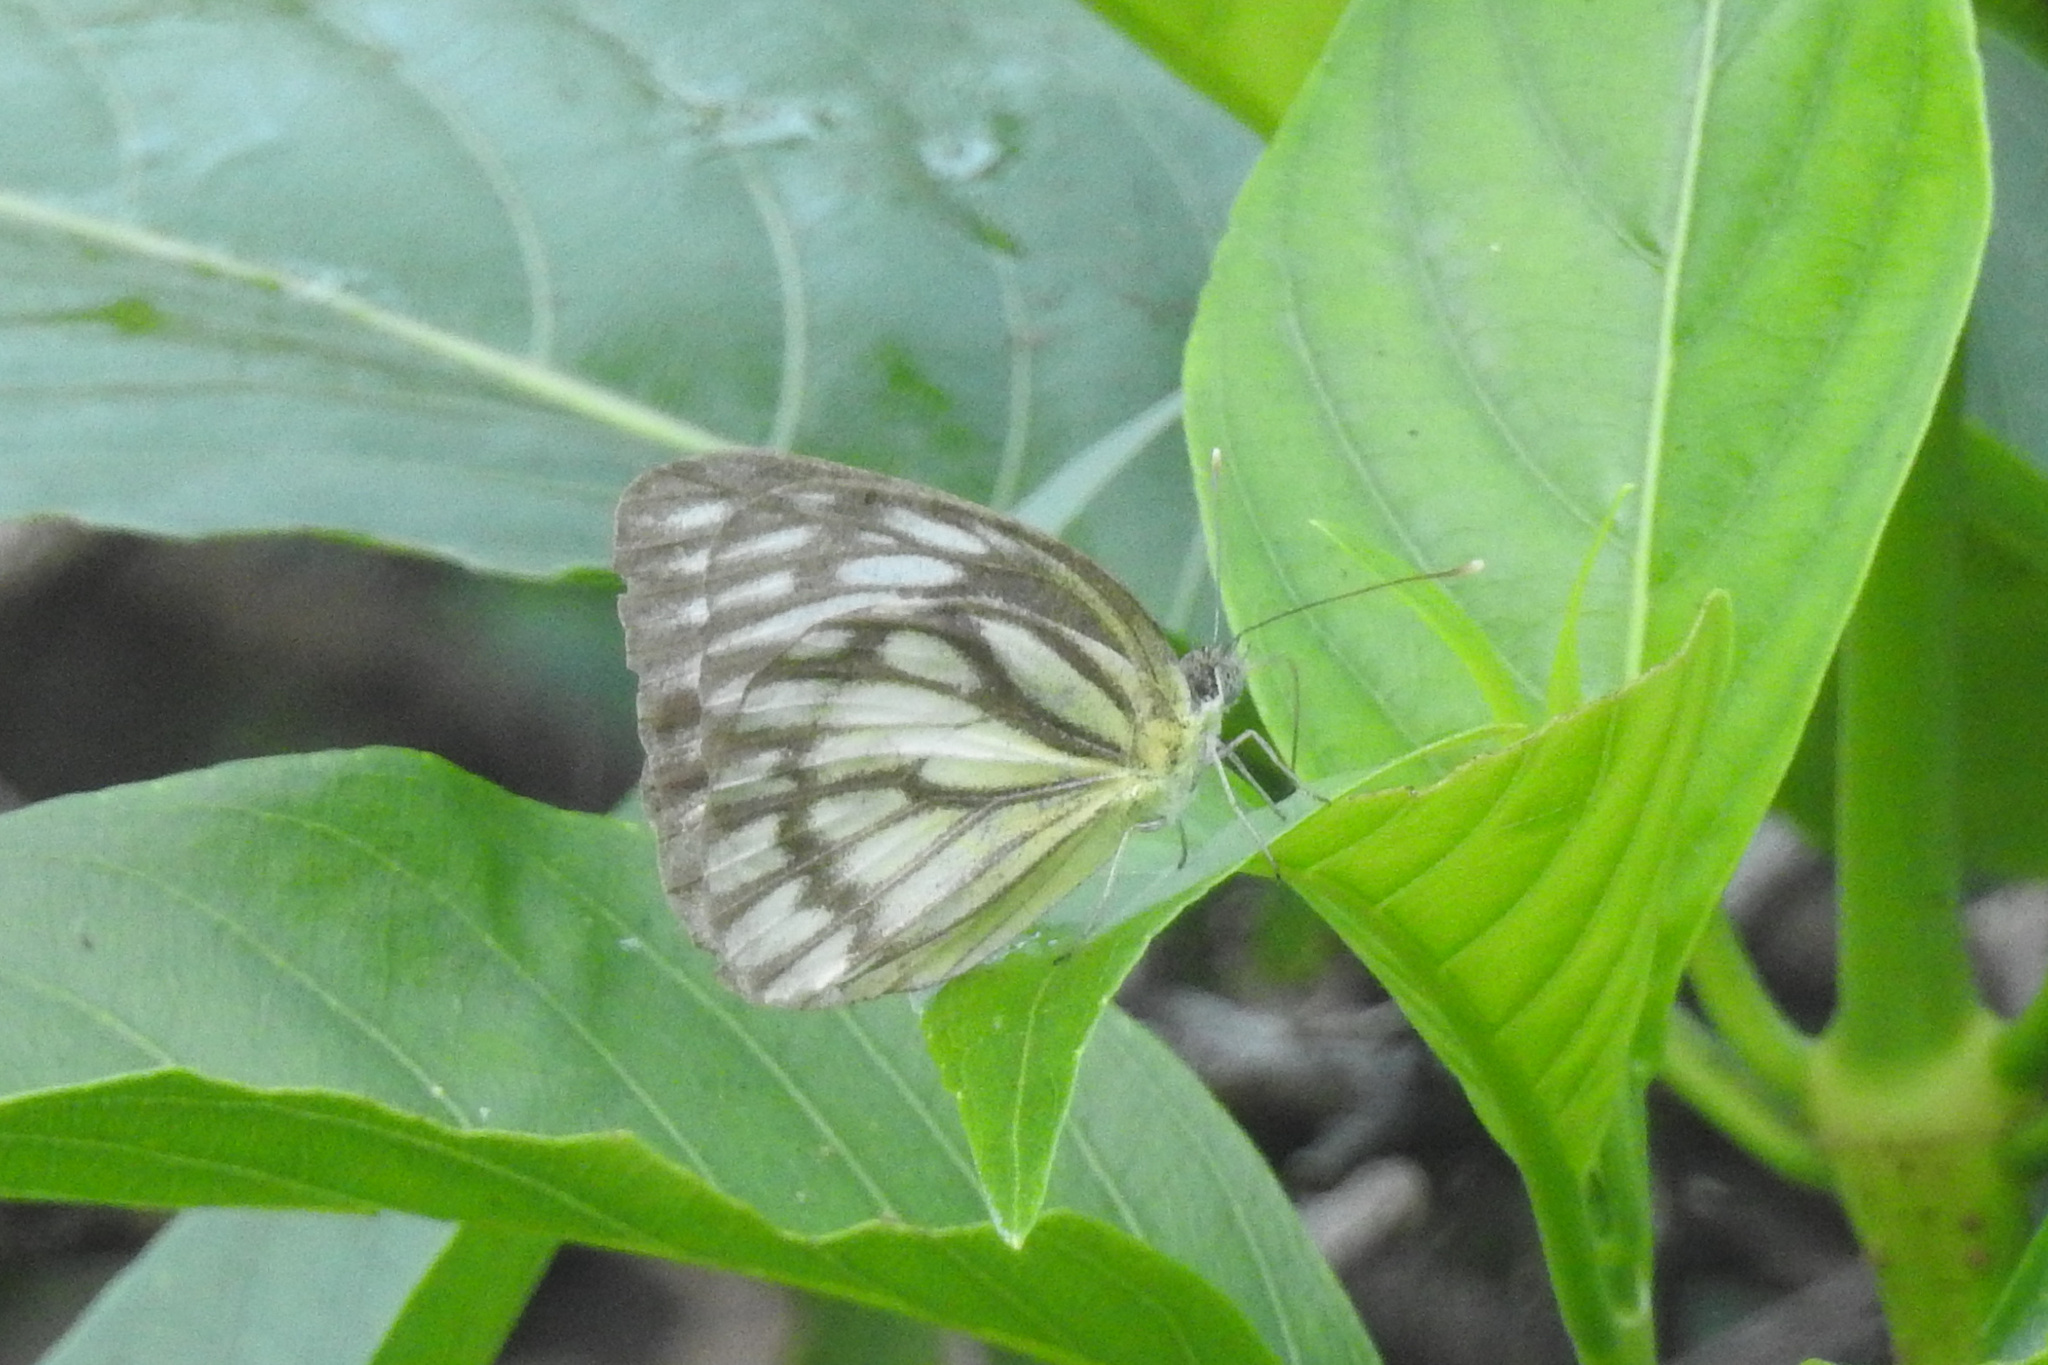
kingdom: Animalia
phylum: Arthropoda
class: Insecta
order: Lepidoptera
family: Pieridae
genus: Cepora
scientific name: Cepora nerissa
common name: Common gull
